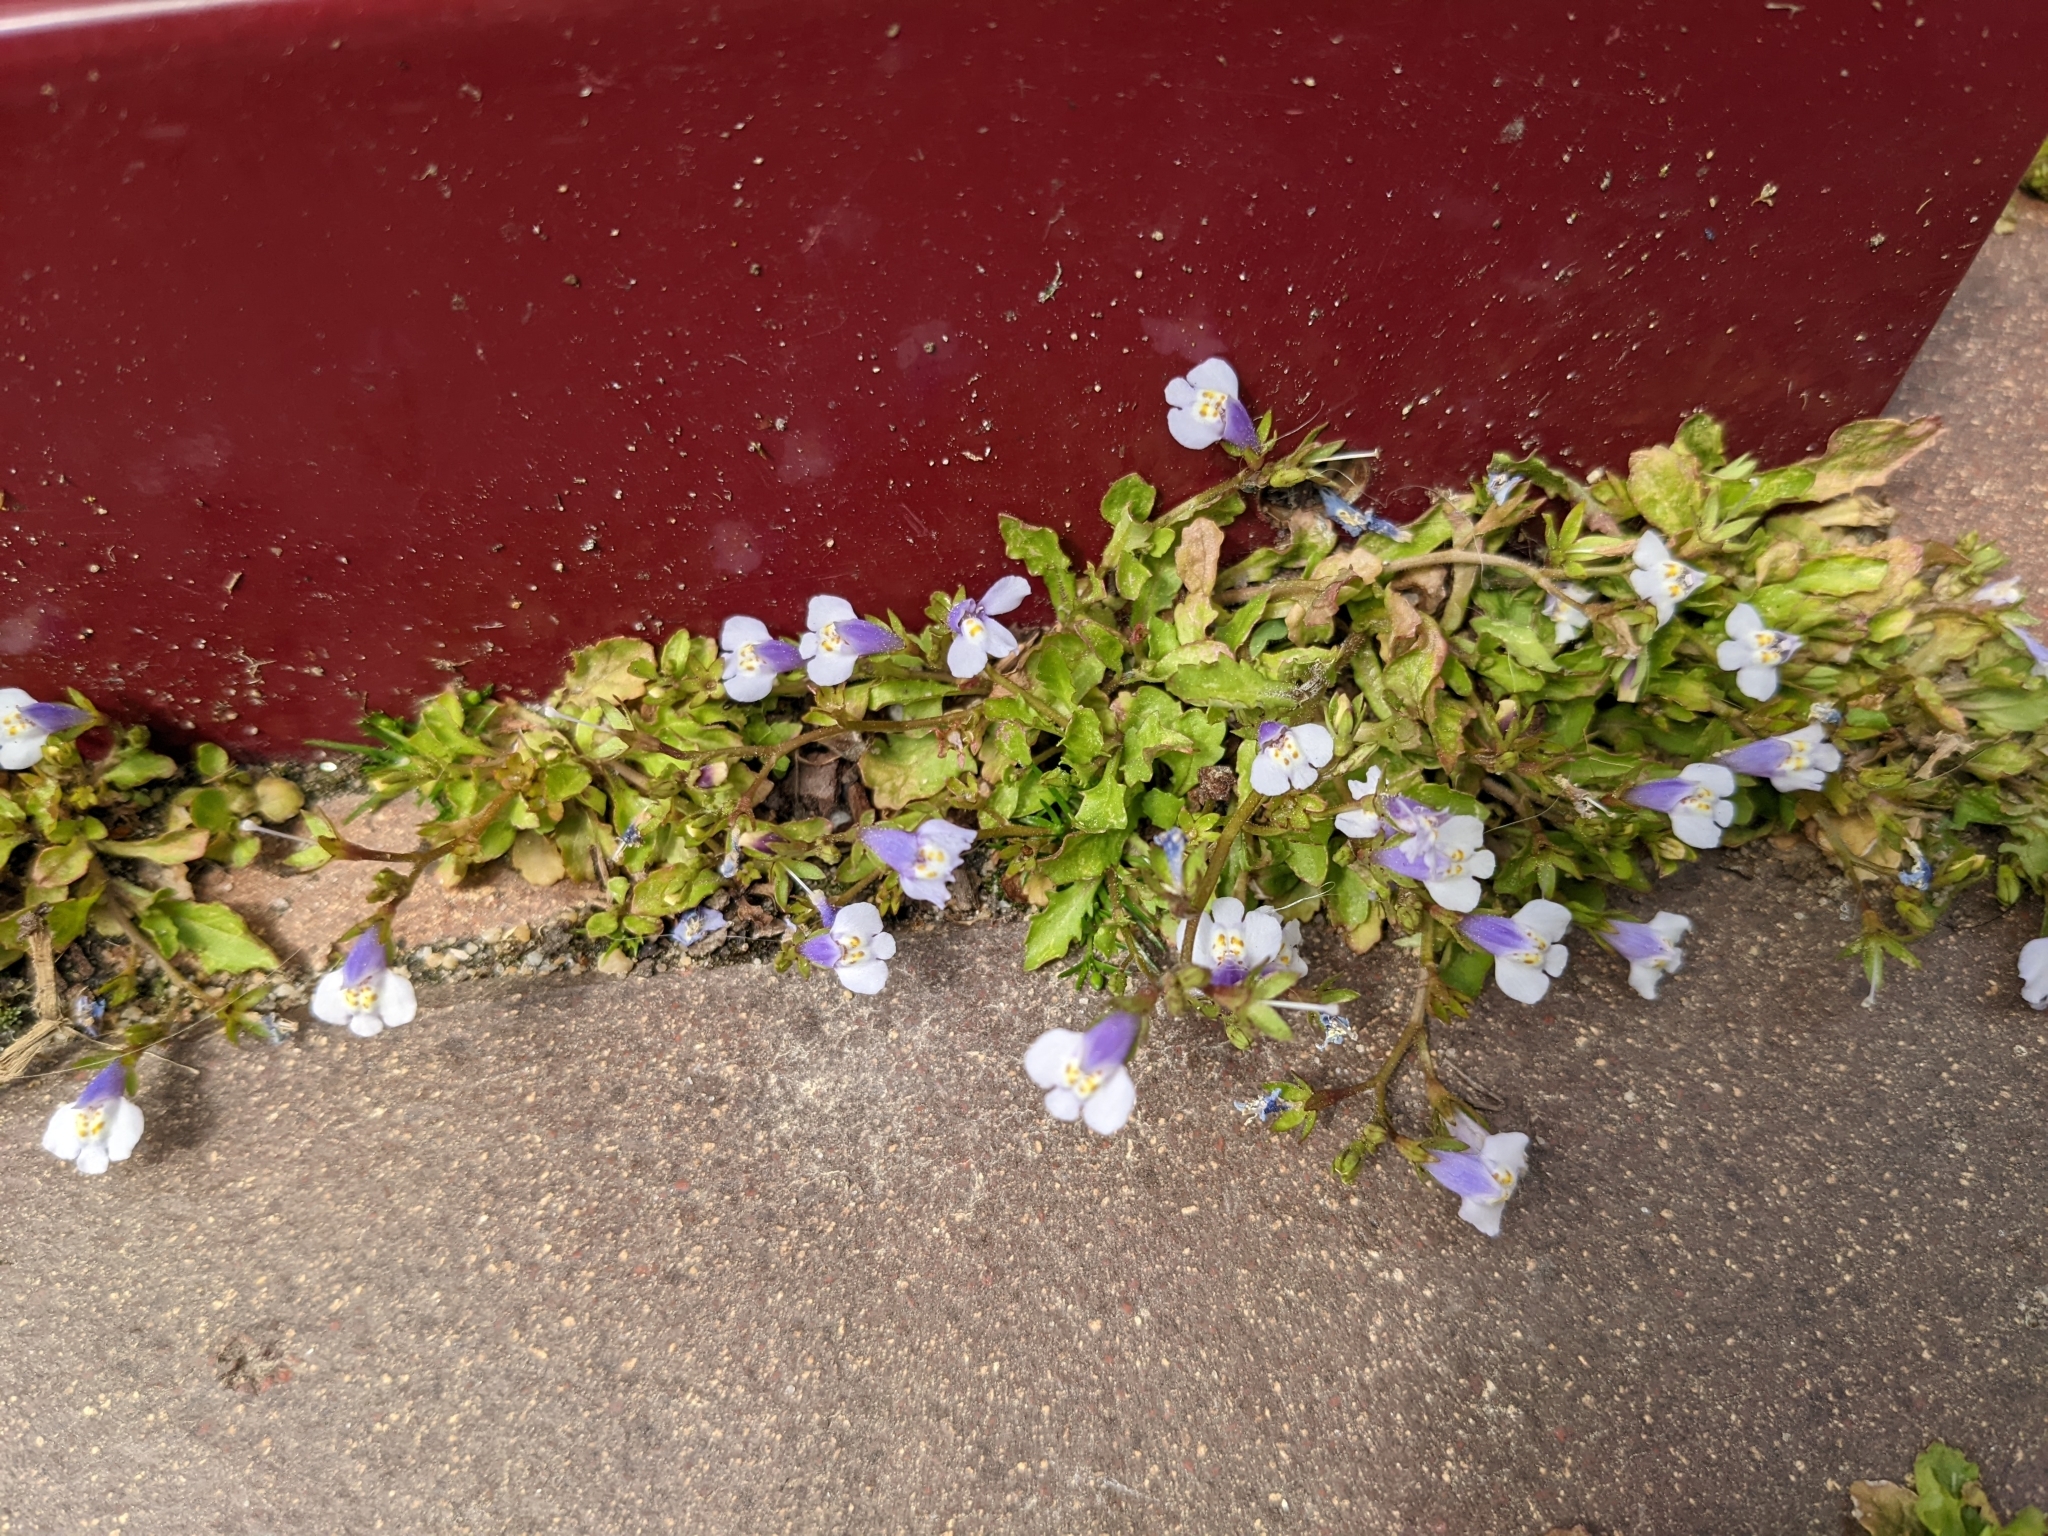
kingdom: Plantae
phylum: Tracheophyta
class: Magnoliopsida
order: Lamiales
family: Mazaceae
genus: Mazus
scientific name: Mazus pumilus
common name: Japanese mazus
